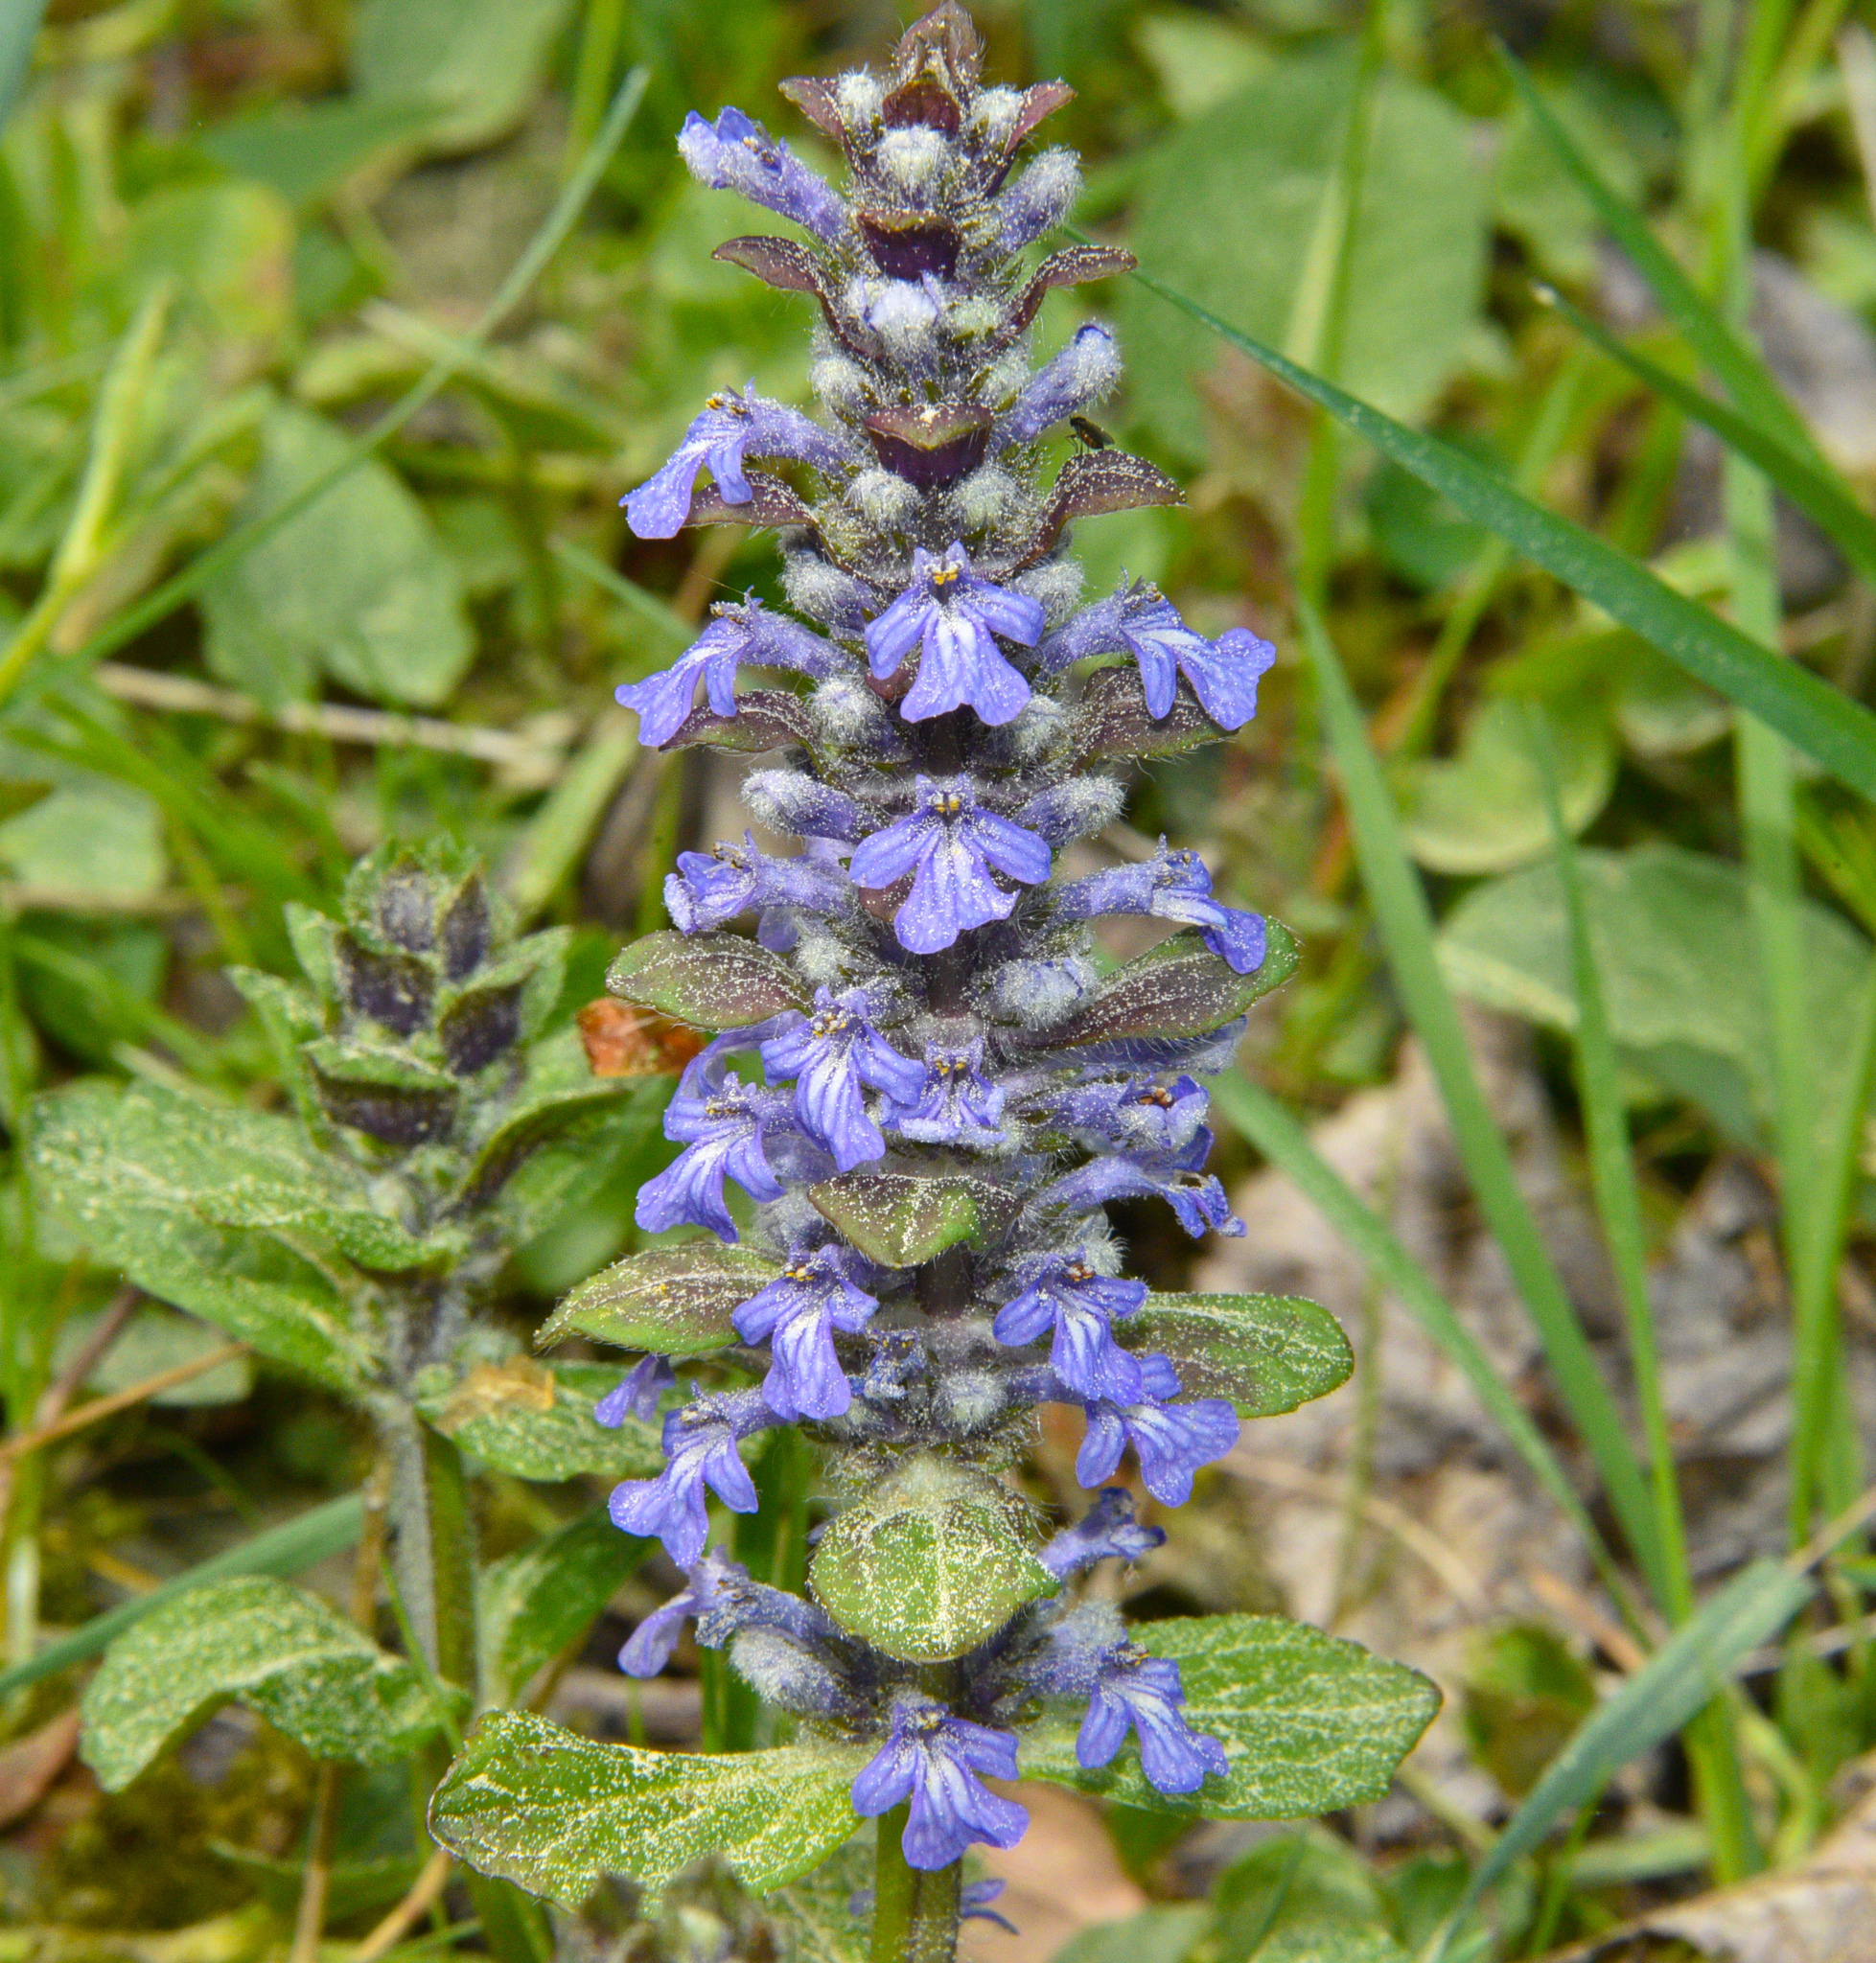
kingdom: Plantae
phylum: Tracheophyta
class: Magnoliopsida
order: Lamiales
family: Lamiaceae
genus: Ajuga
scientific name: Ajuga reptans
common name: Bugle
